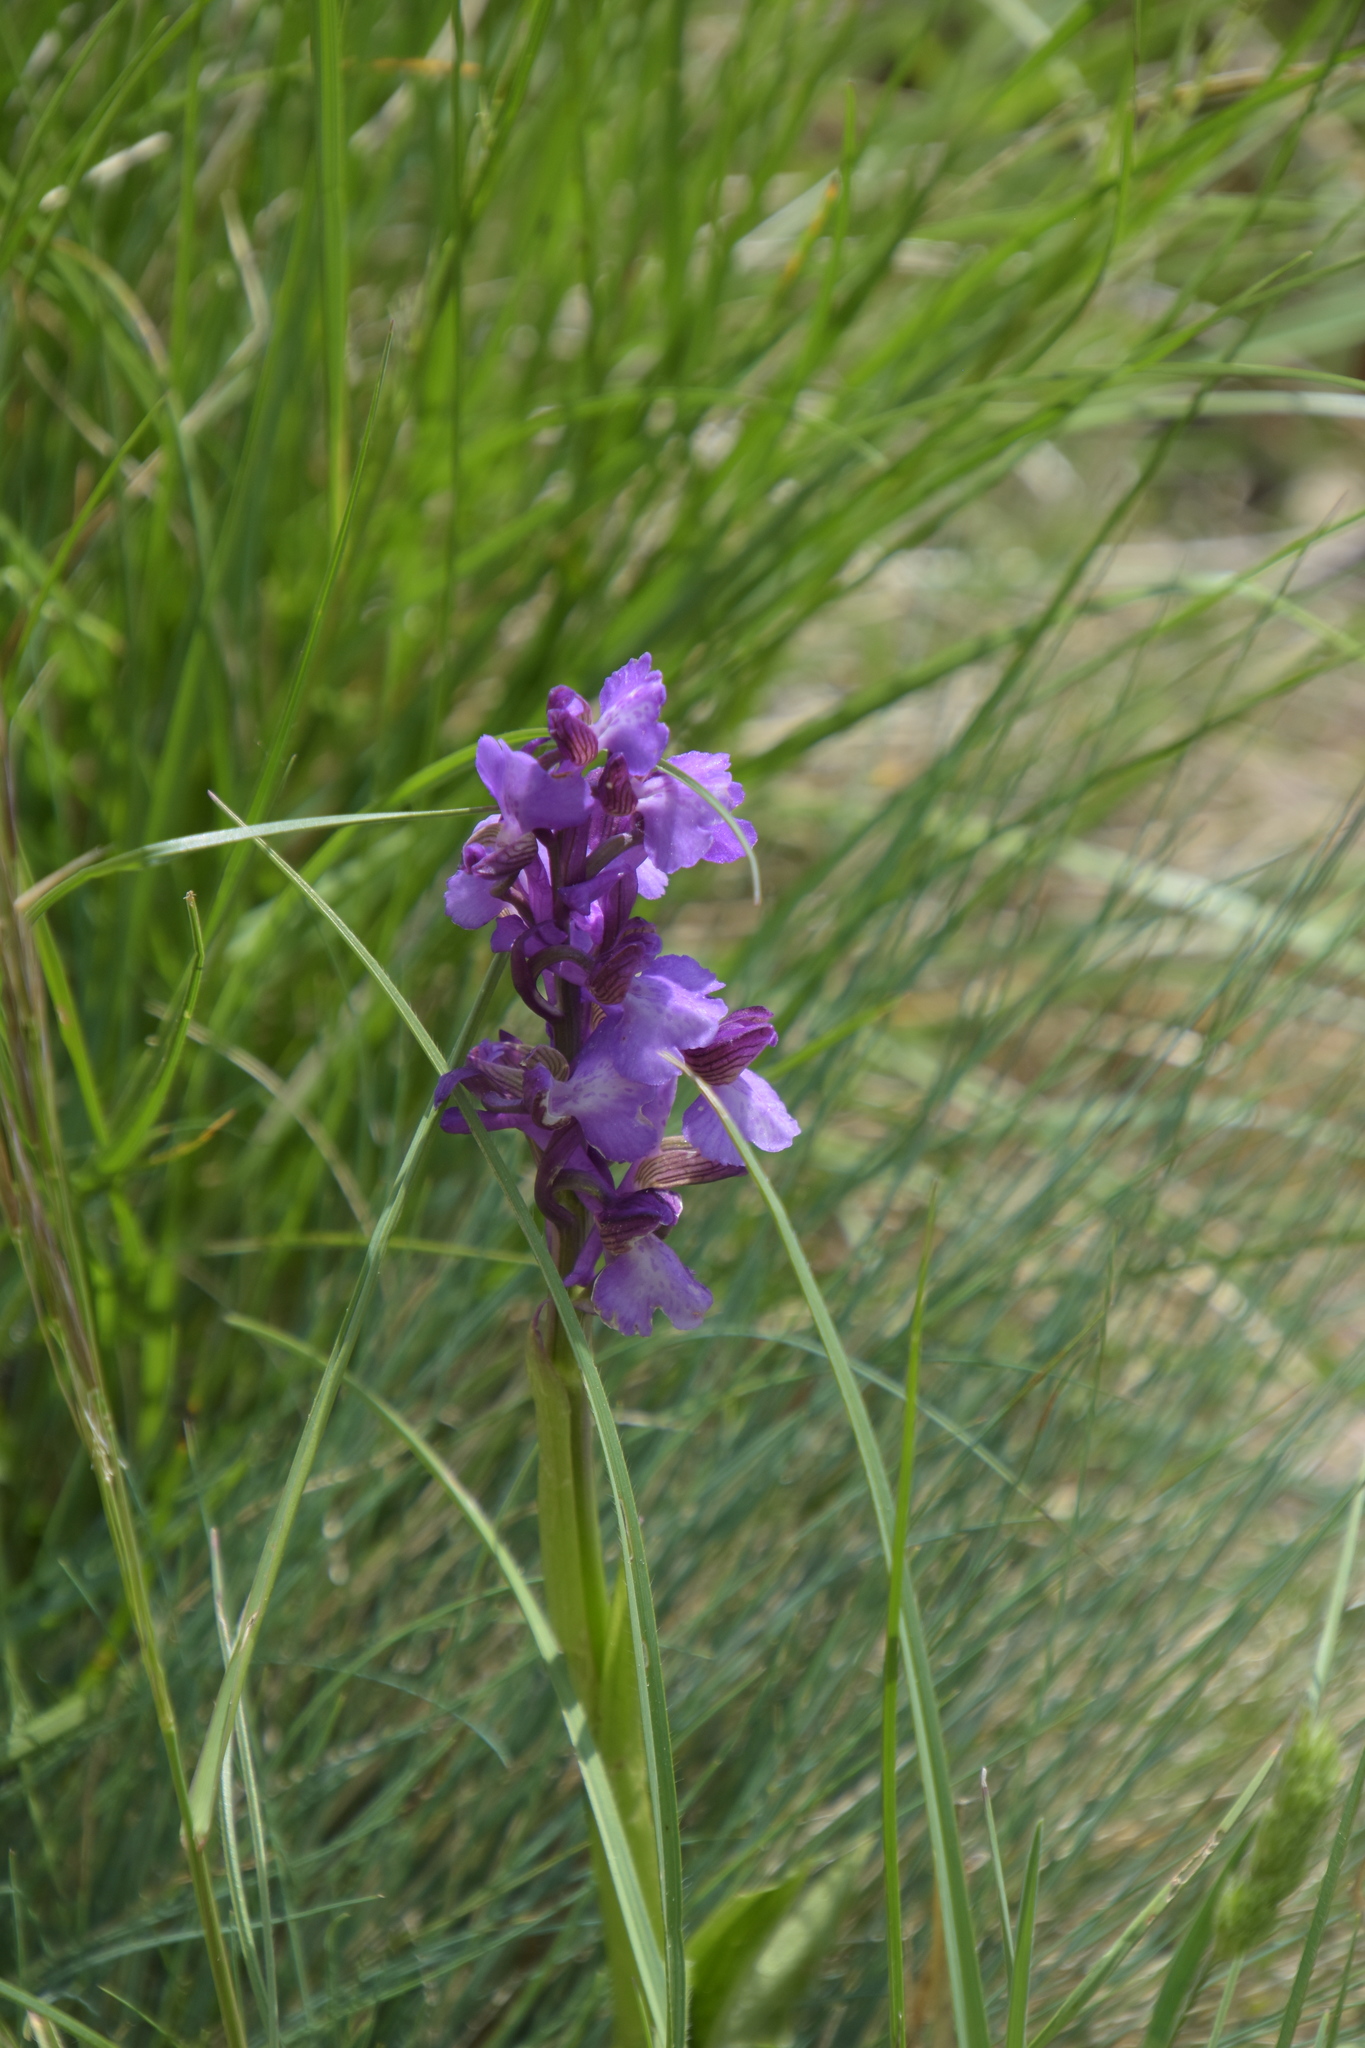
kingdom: Plantae
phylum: Tracheophyta
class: Liliopsida
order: Asparagales
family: Orchidaceae
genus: Anacamptis
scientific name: Anacamptis morio
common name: Green-winged orchid
